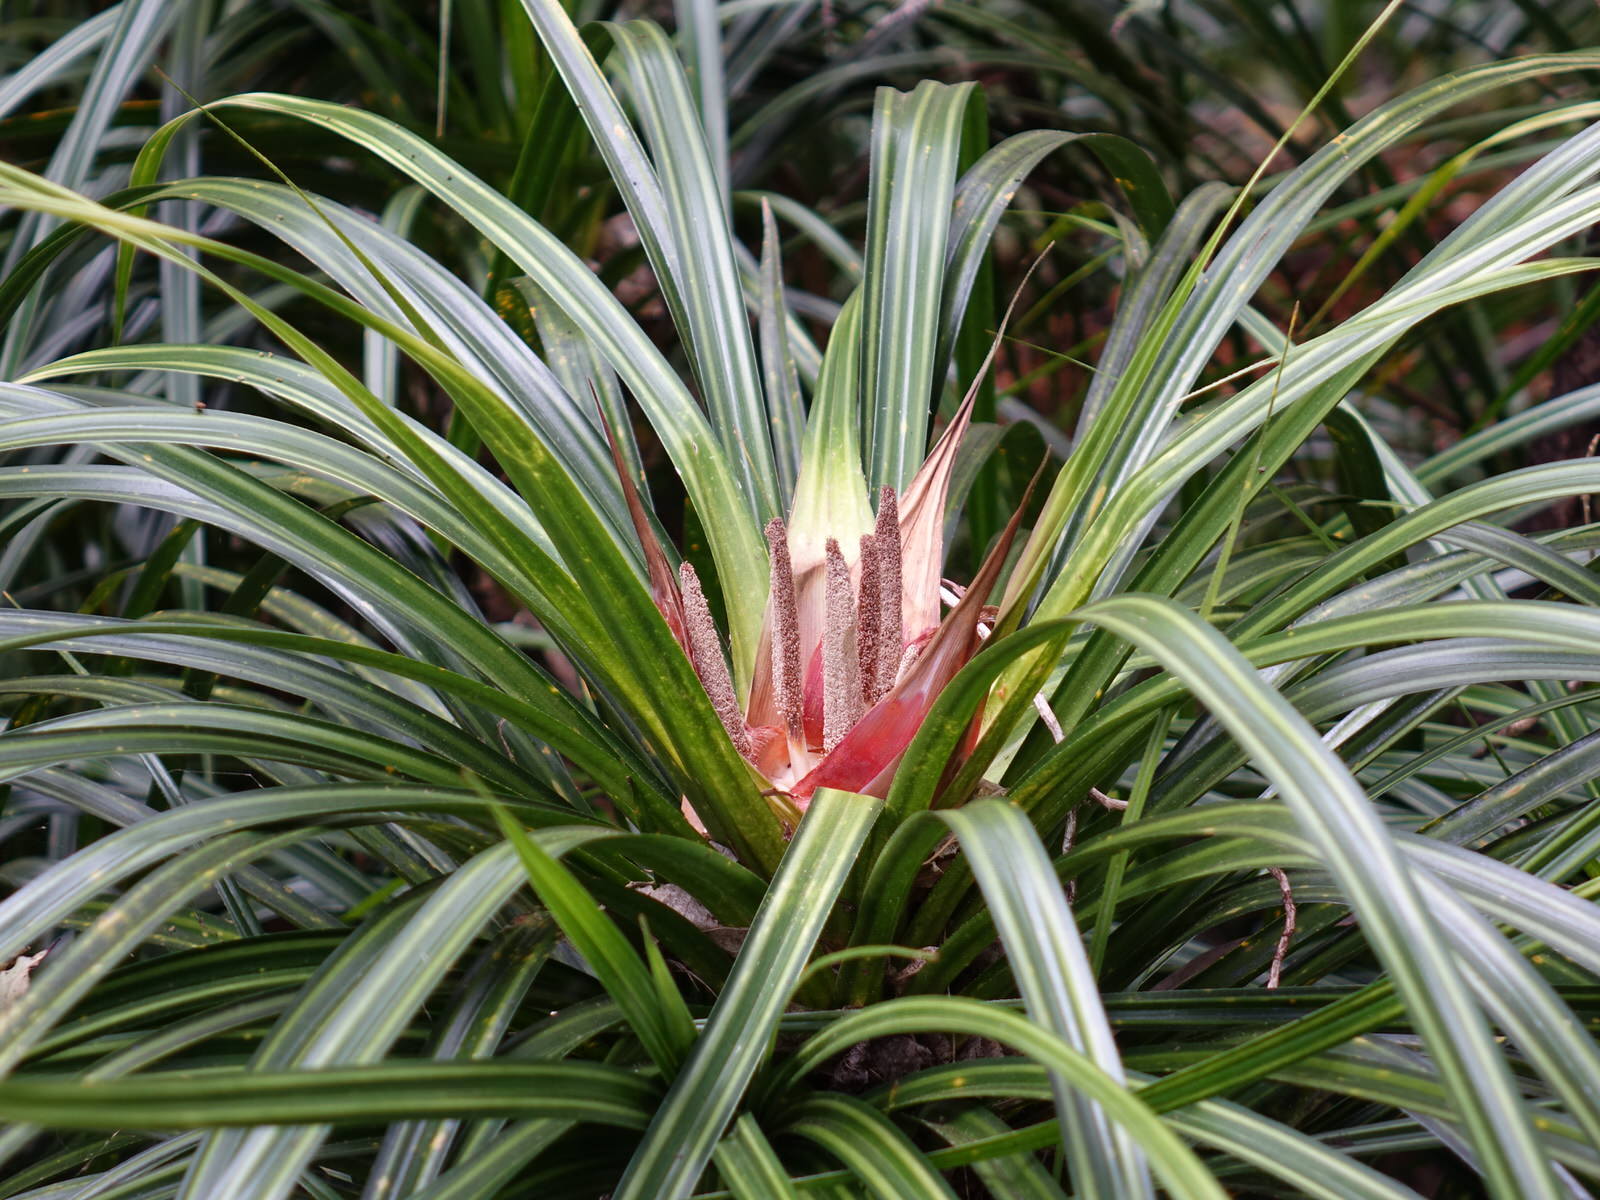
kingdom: Plantae
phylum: Tracheophyta
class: Liliopsida
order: Pandanales
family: Pandanaceae
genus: Freycinetia
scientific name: Freycinetia banksii
